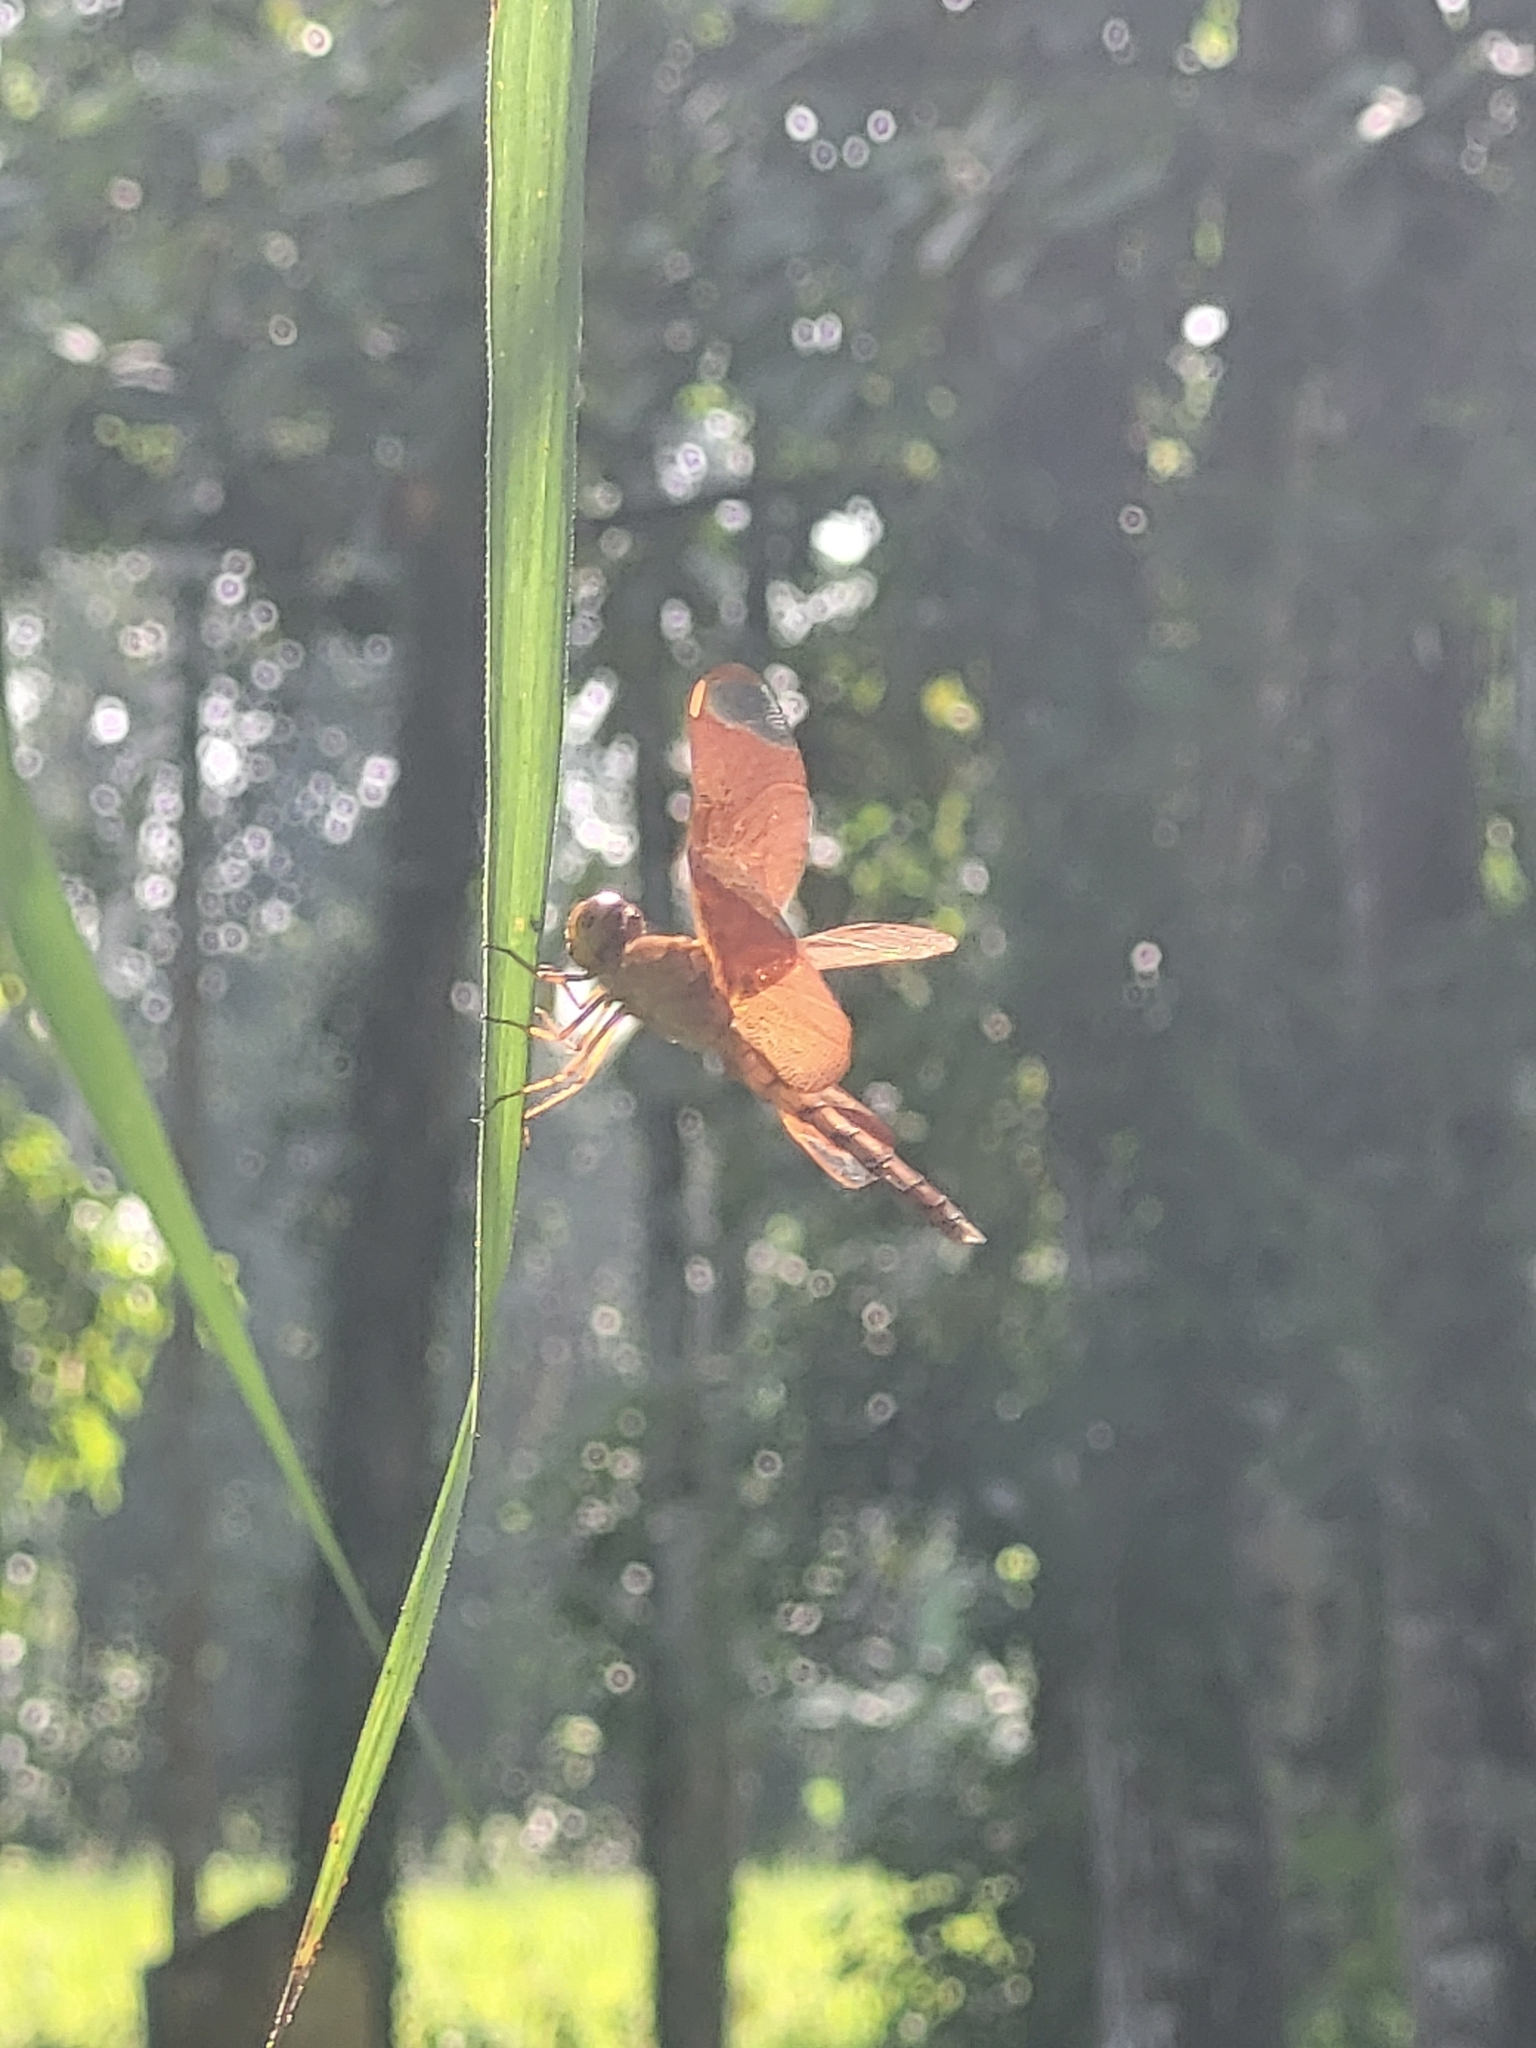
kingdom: Animalia
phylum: Arthropoda
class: Insecta
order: Odonata
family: Libellulidae
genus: Neurothemis
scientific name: Neurothemis fulvia
